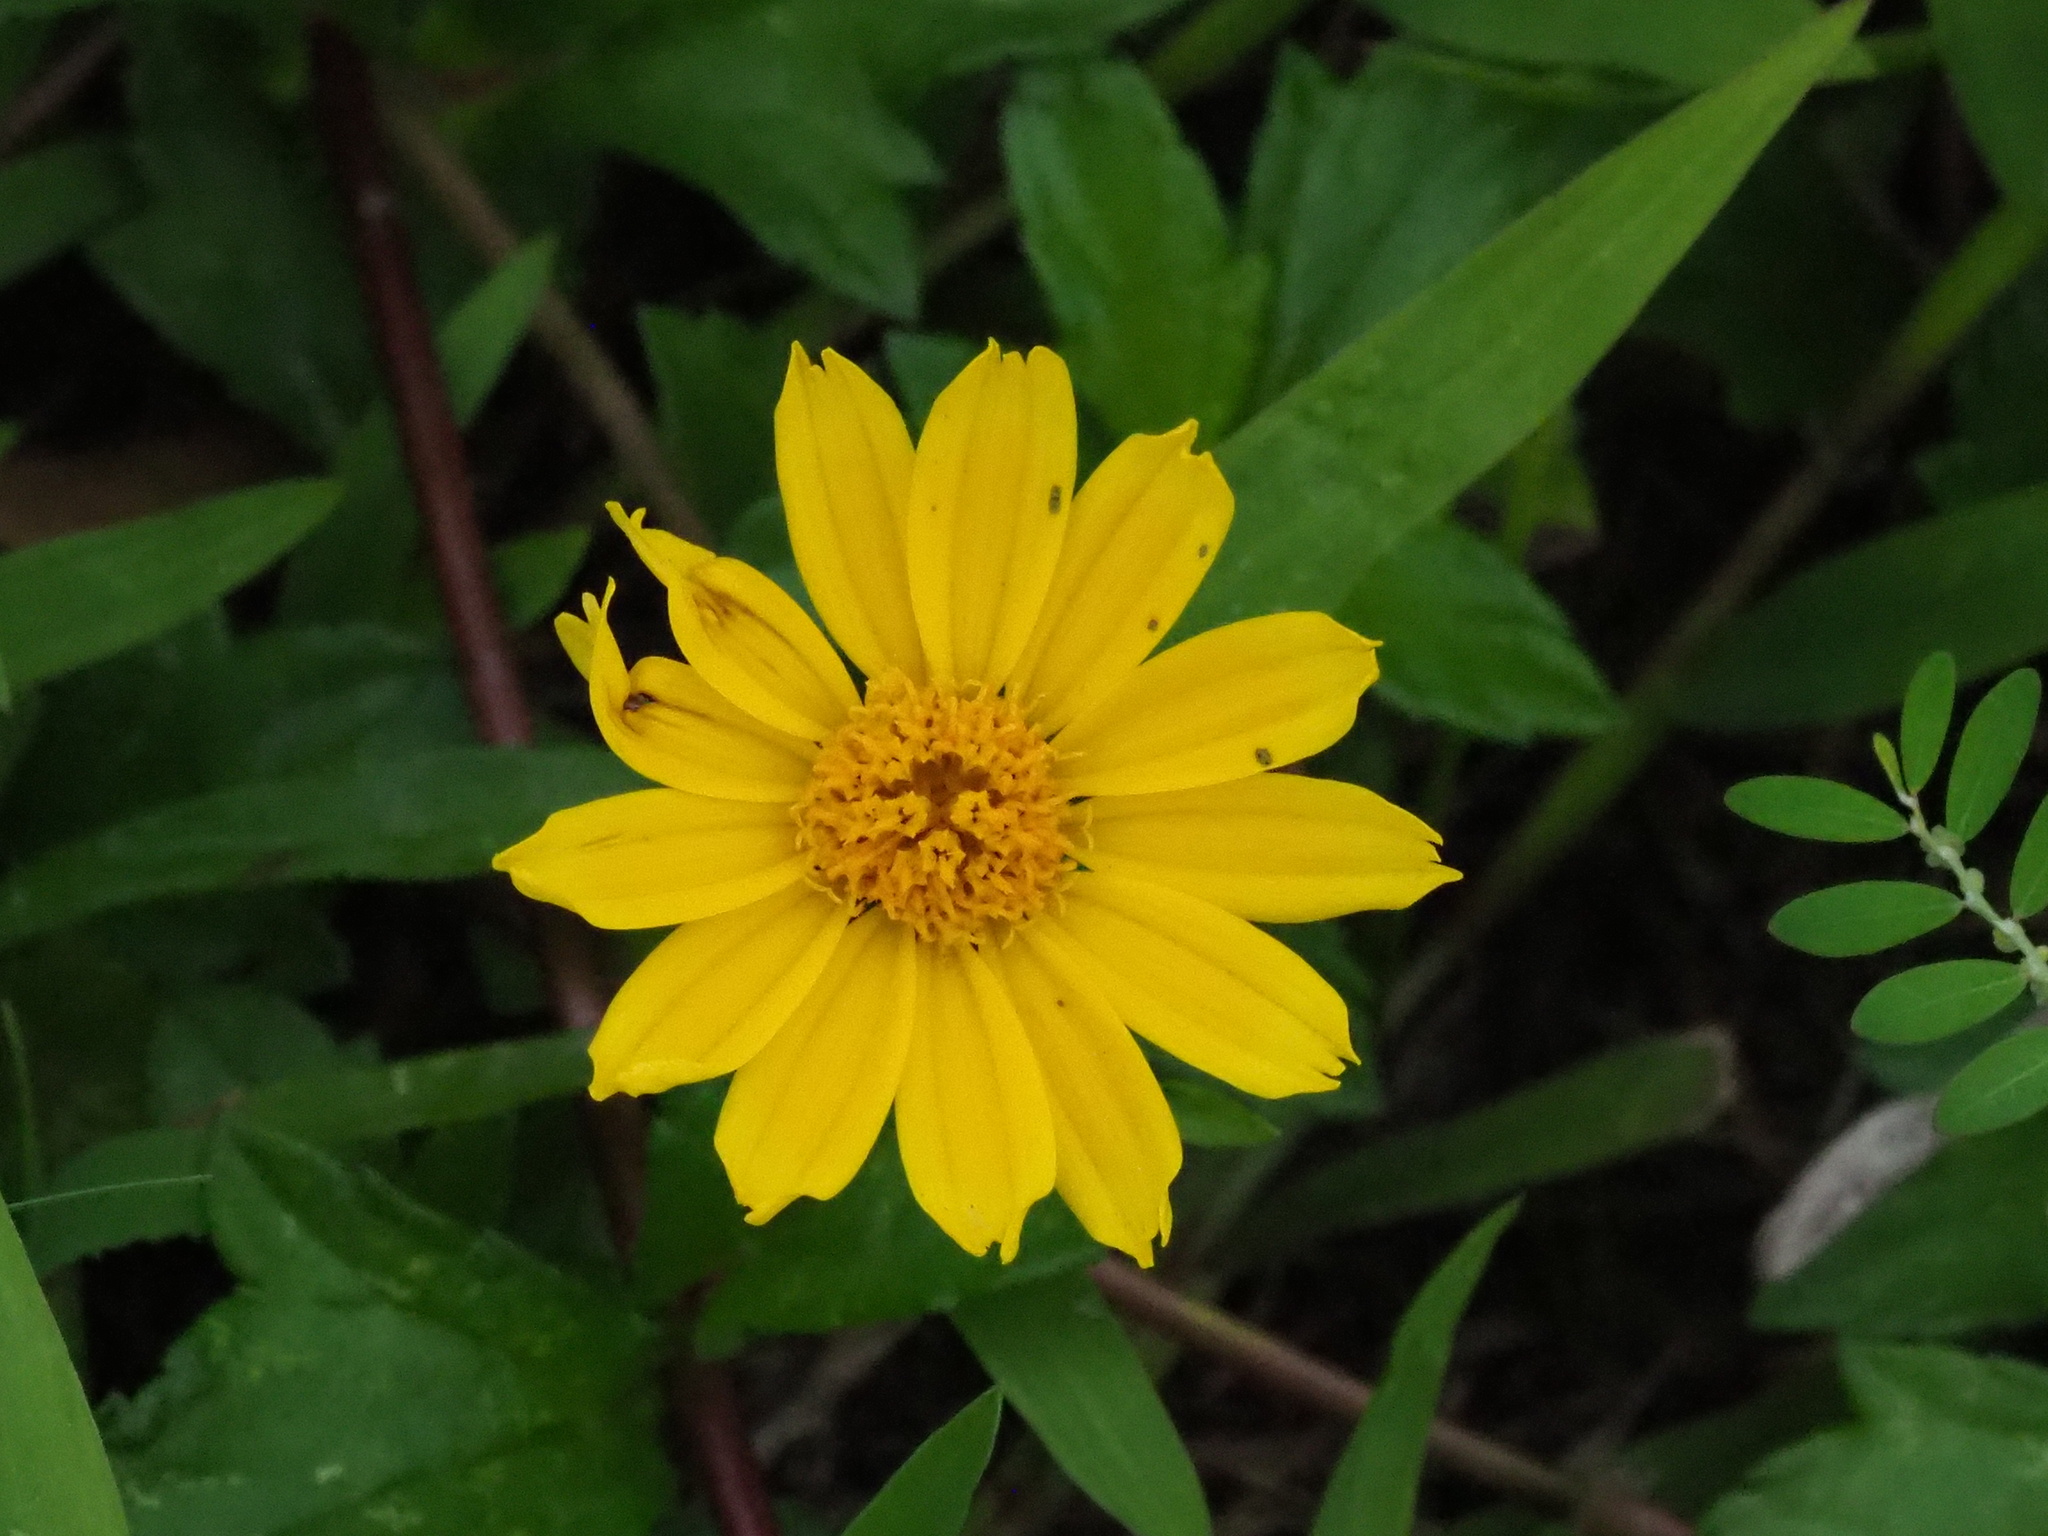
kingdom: Plantae
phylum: Tracheophyta
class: Magnoliopsida
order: Asterales
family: Asteraceae
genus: Sphagneticola
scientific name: Sphagneticola trilobata
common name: Bay biscayne creeping-oxeye
